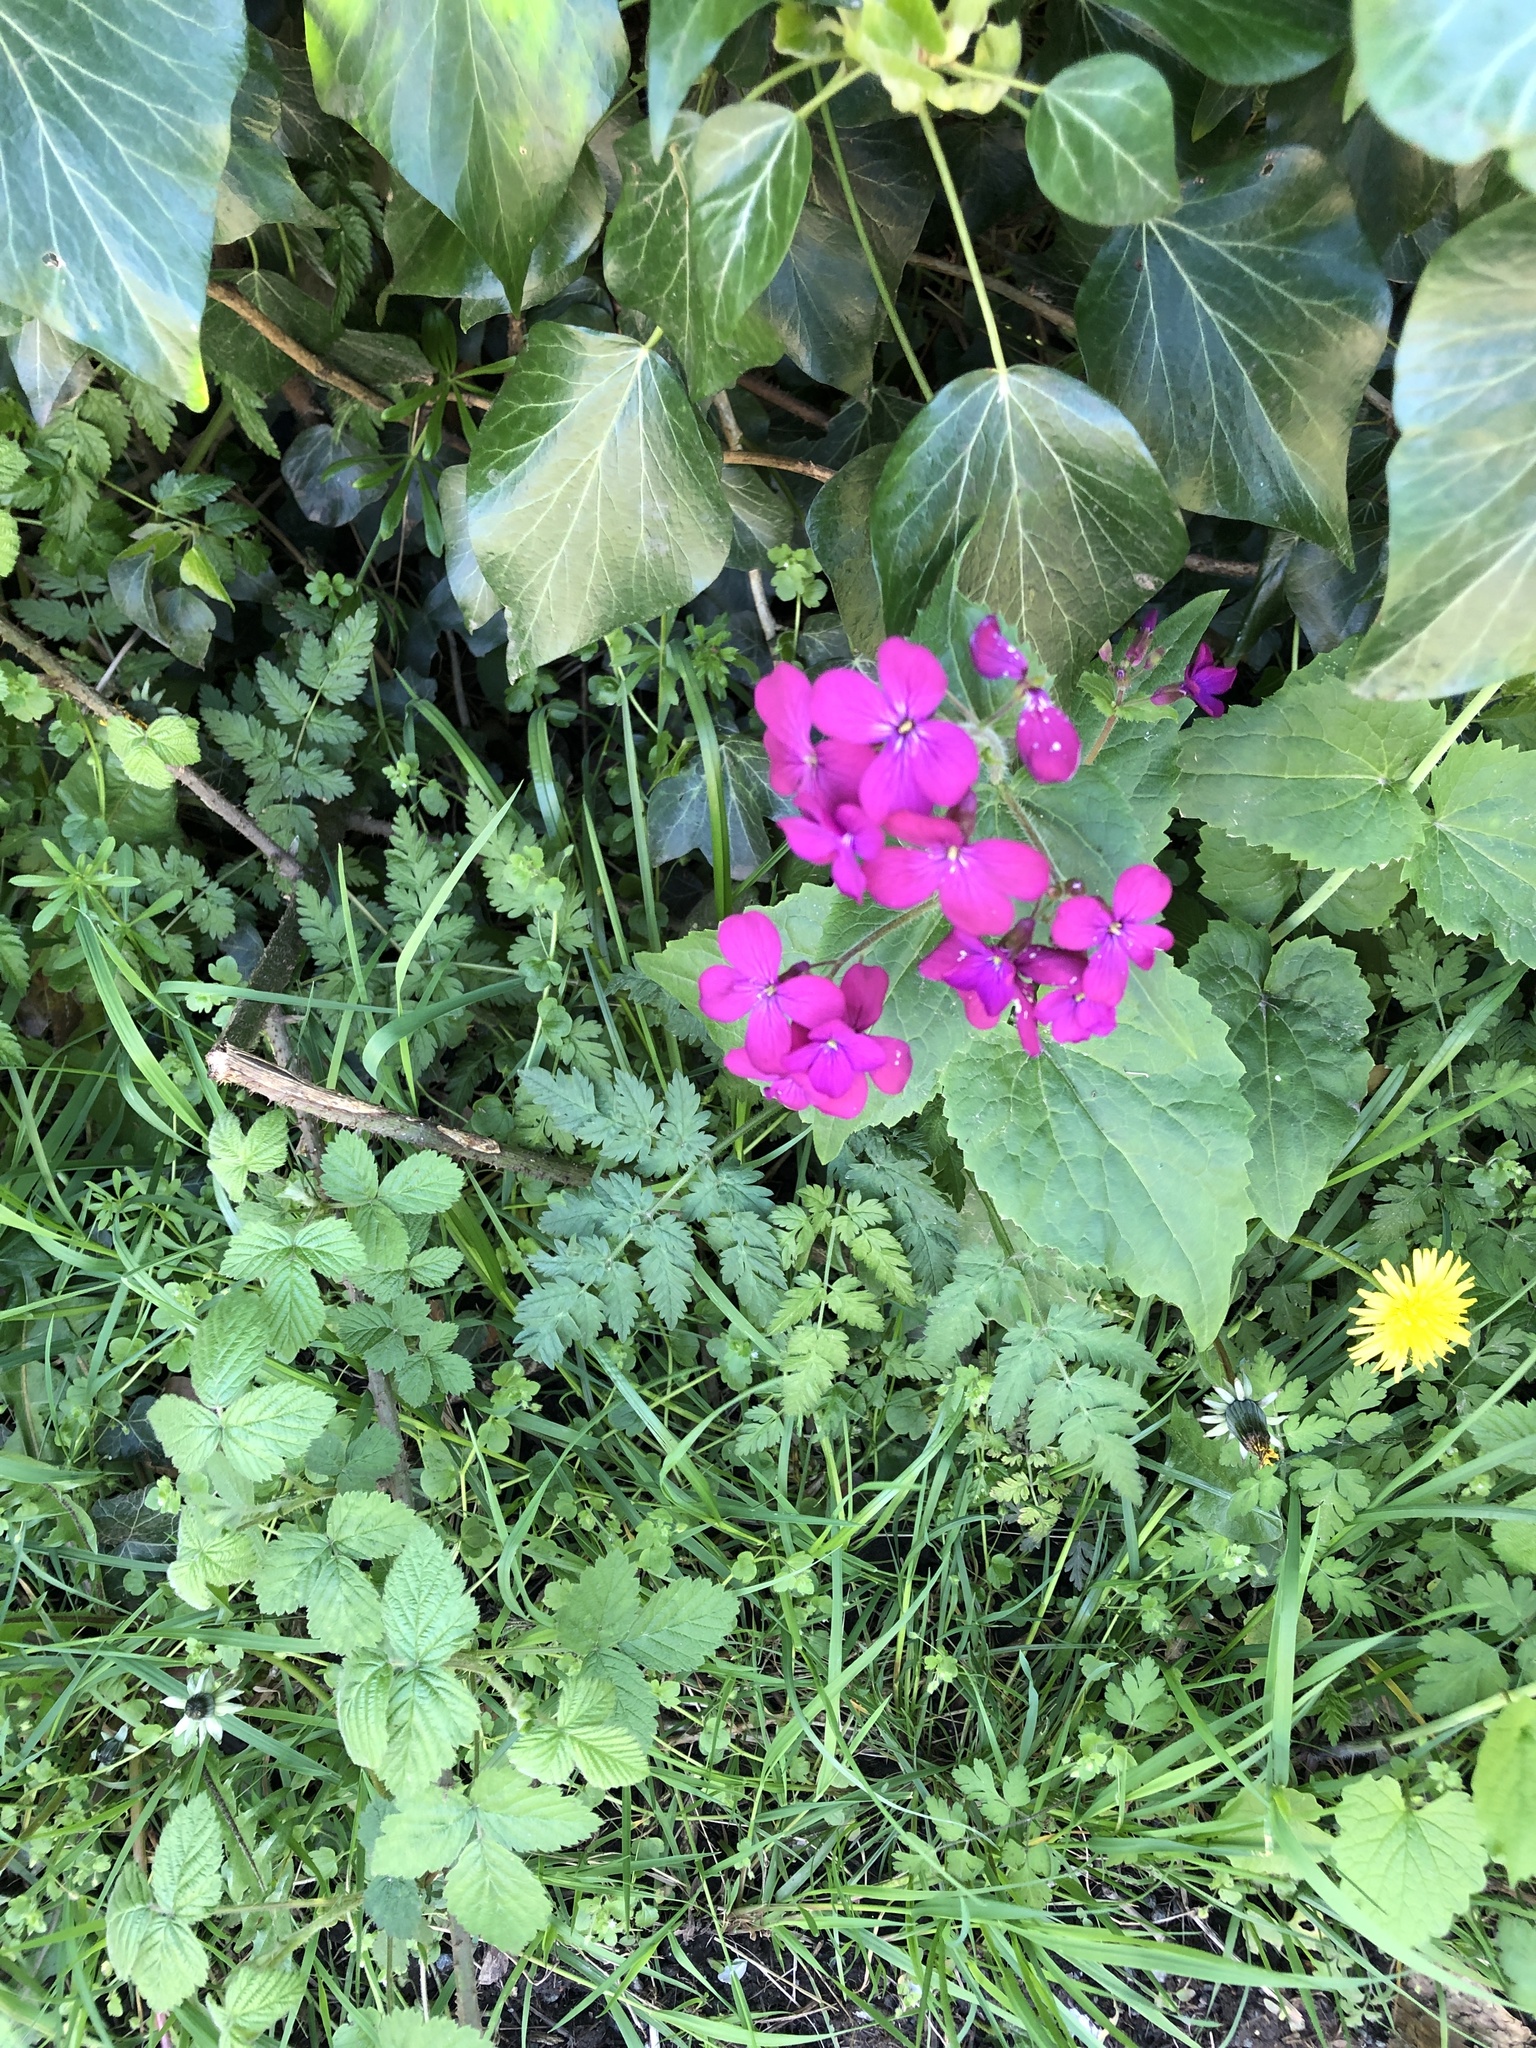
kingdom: Plantae
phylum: Tracheophyta
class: Magnoliopsida
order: Brassicales
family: Brassicaceae
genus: Lunaria
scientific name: Lunaria annua
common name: Honesty
